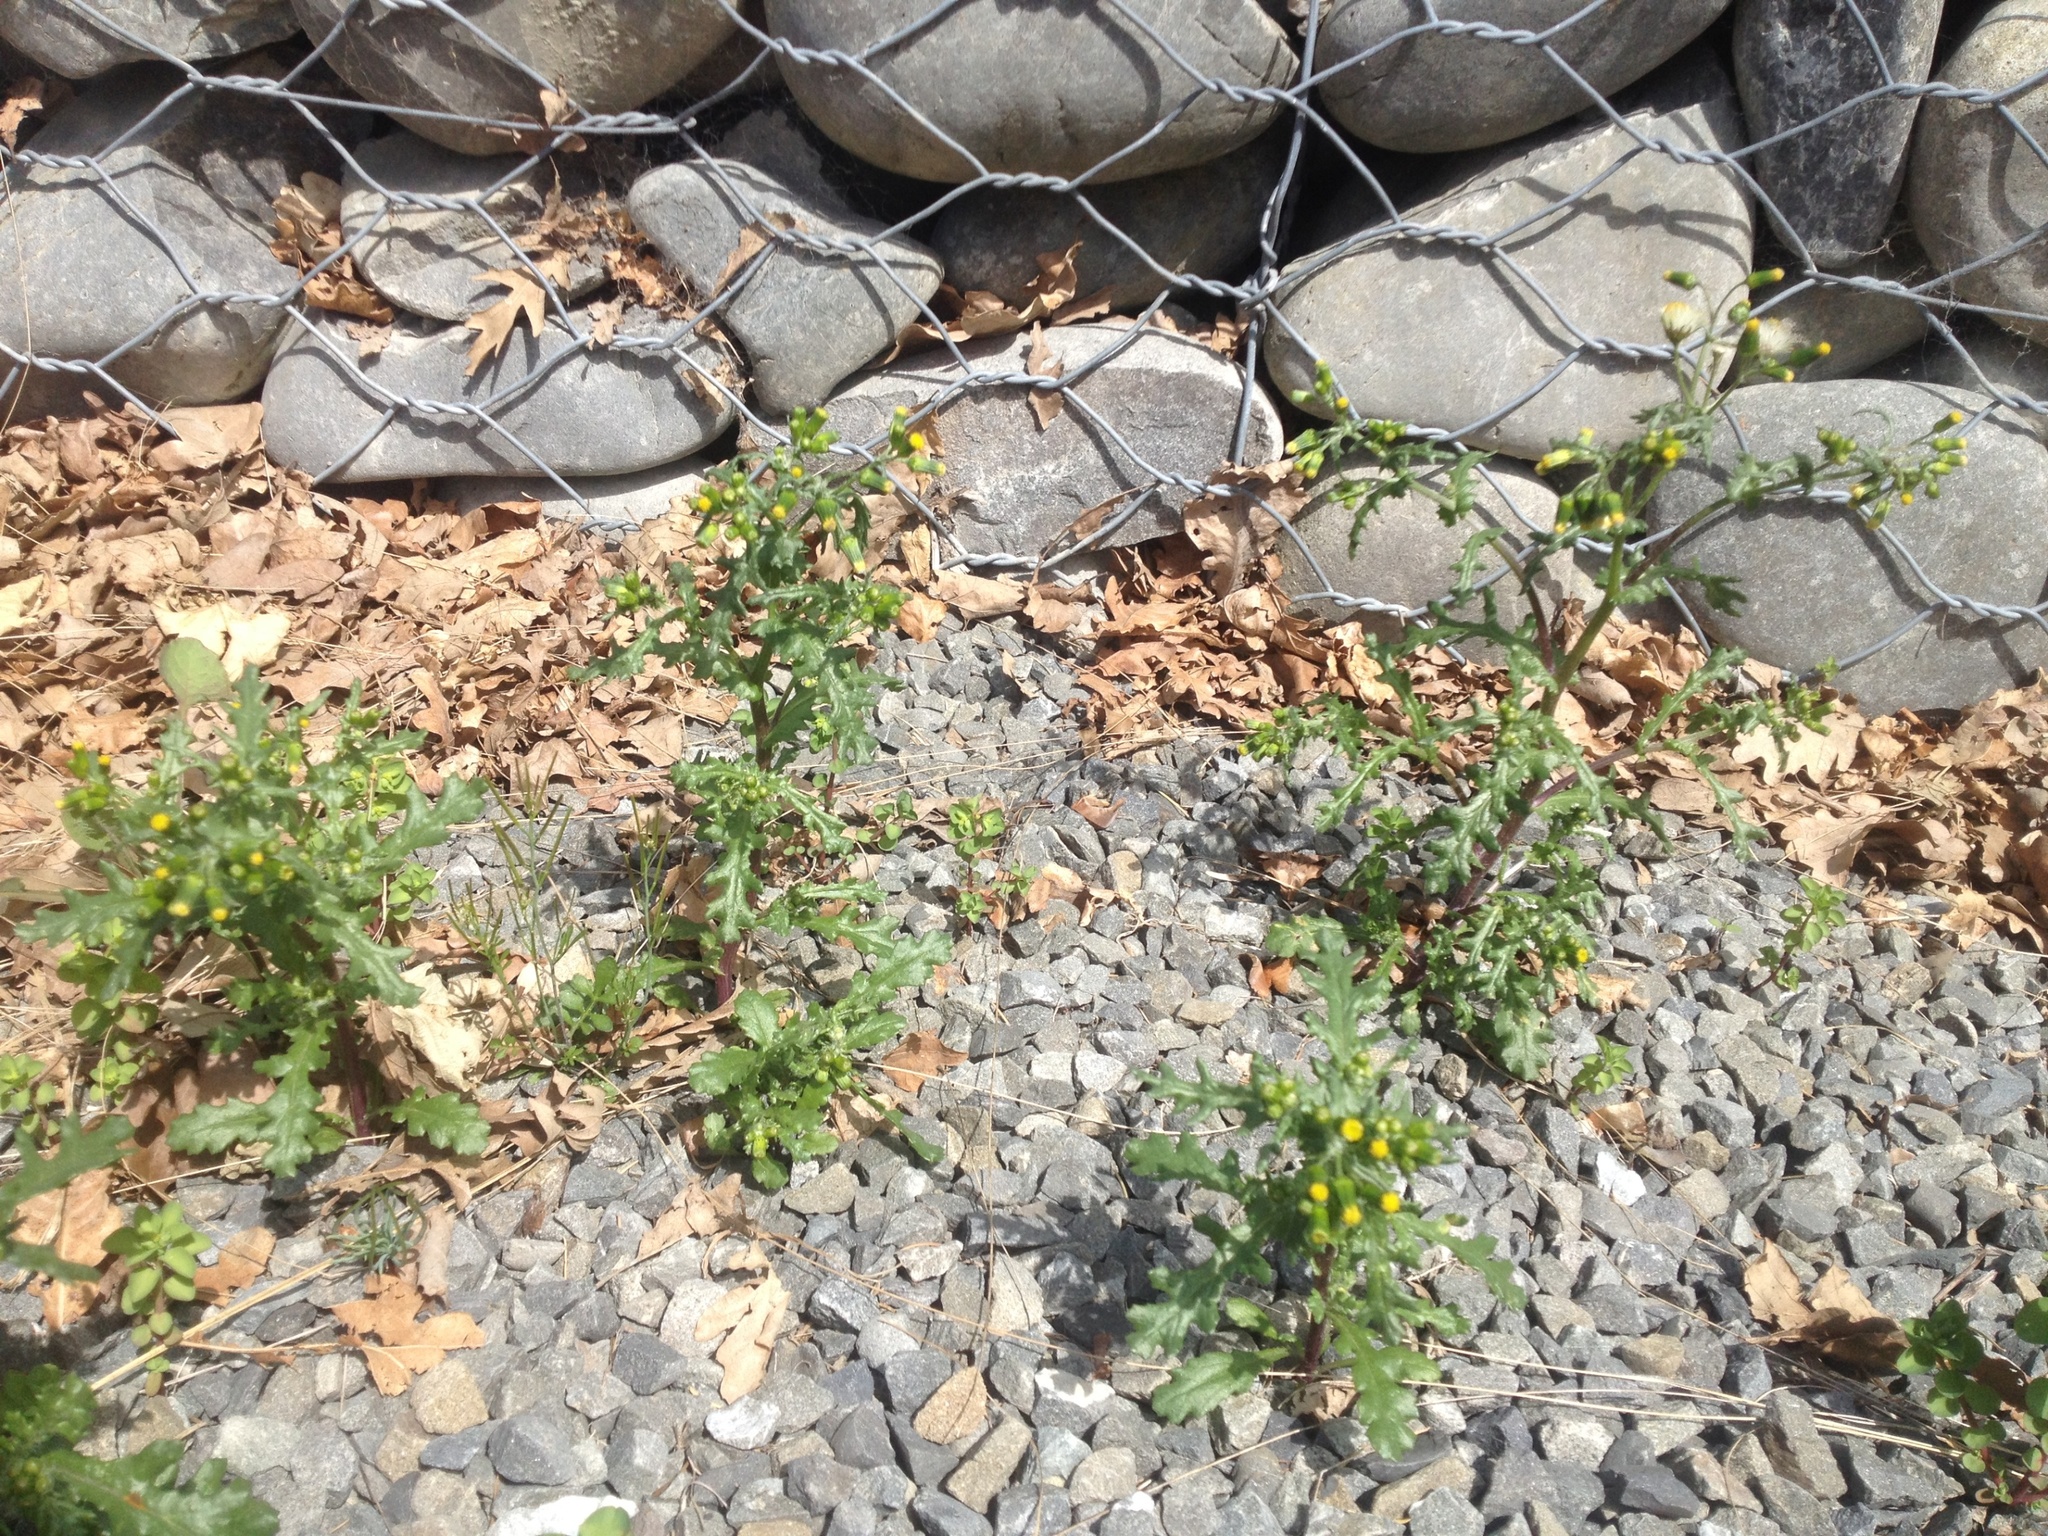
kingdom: Plantae
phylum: Tracheophyta
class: Magnoliopsida
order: Asterales
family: Asteraceae
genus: Senecio
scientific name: Senecio vulgaris
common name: Old-man-in-the-spring
